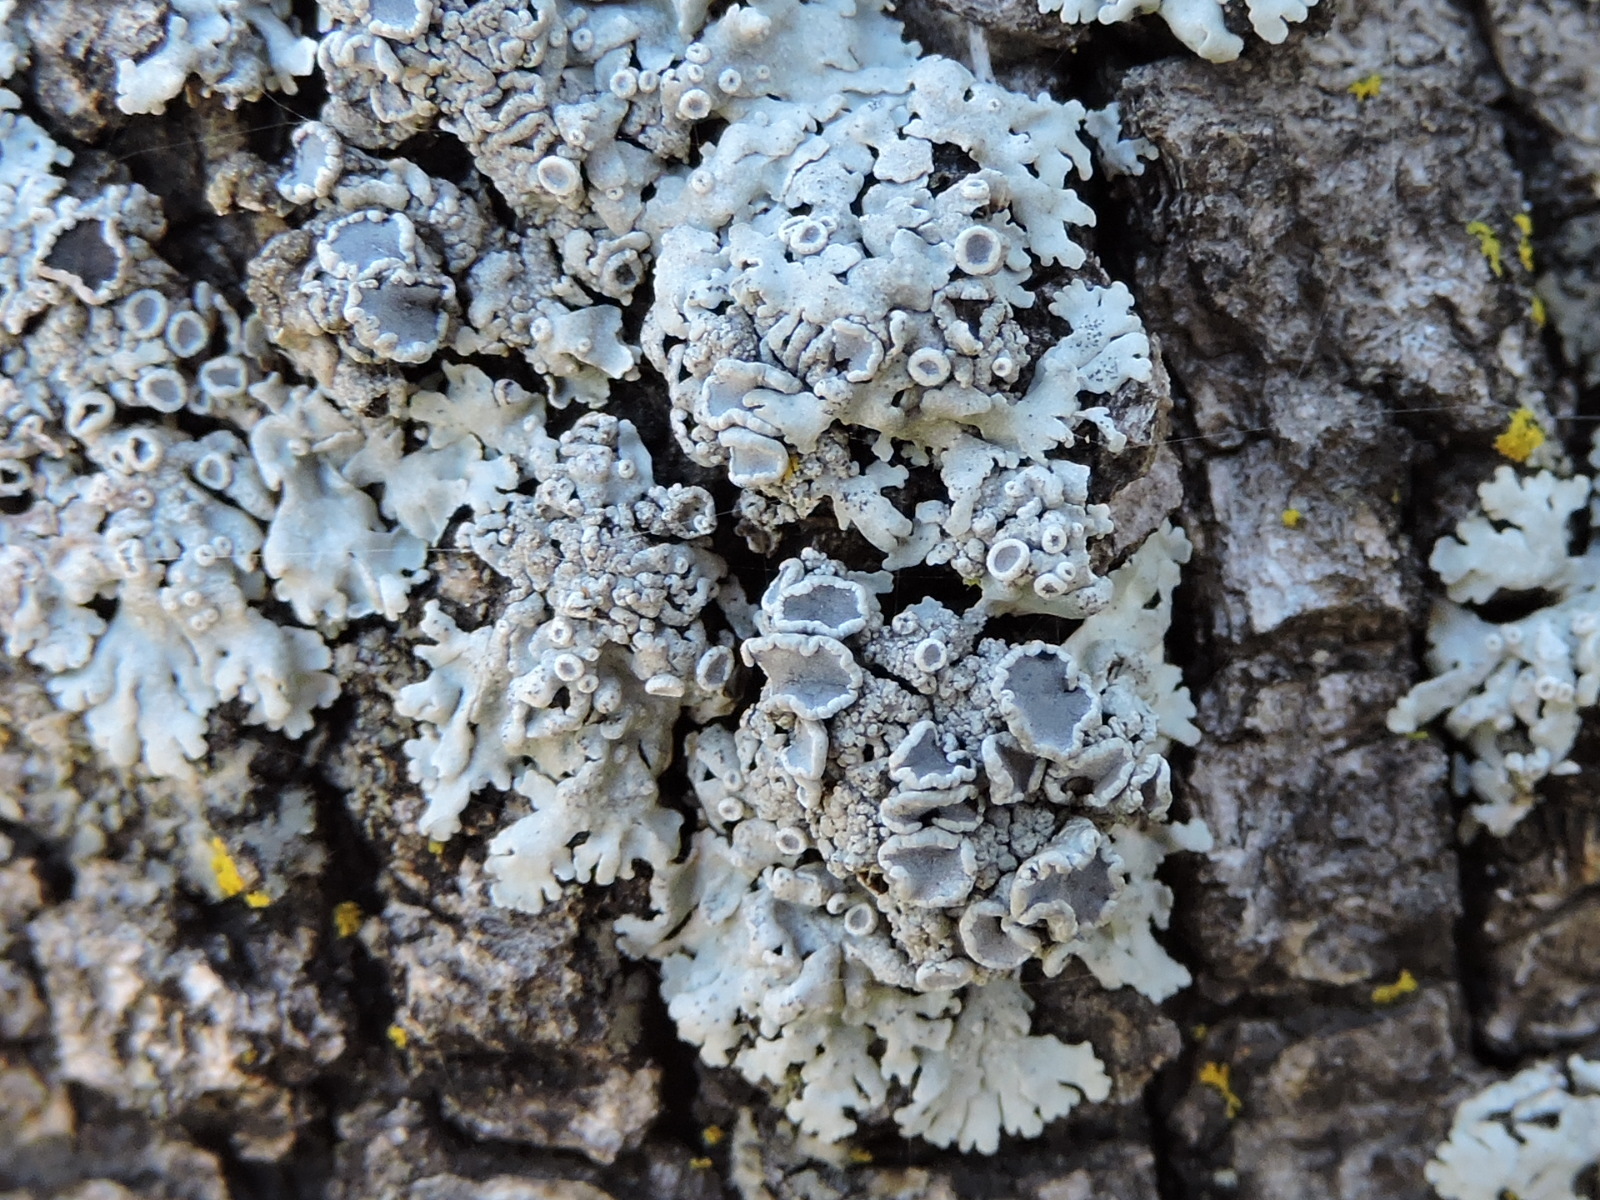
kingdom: Fungi
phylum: Ascomycota
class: Lecanoromycetes
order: Caliciales
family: Physciaceae
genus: Physcia
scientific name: Physcia stellaris
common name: Star rosette lichen
